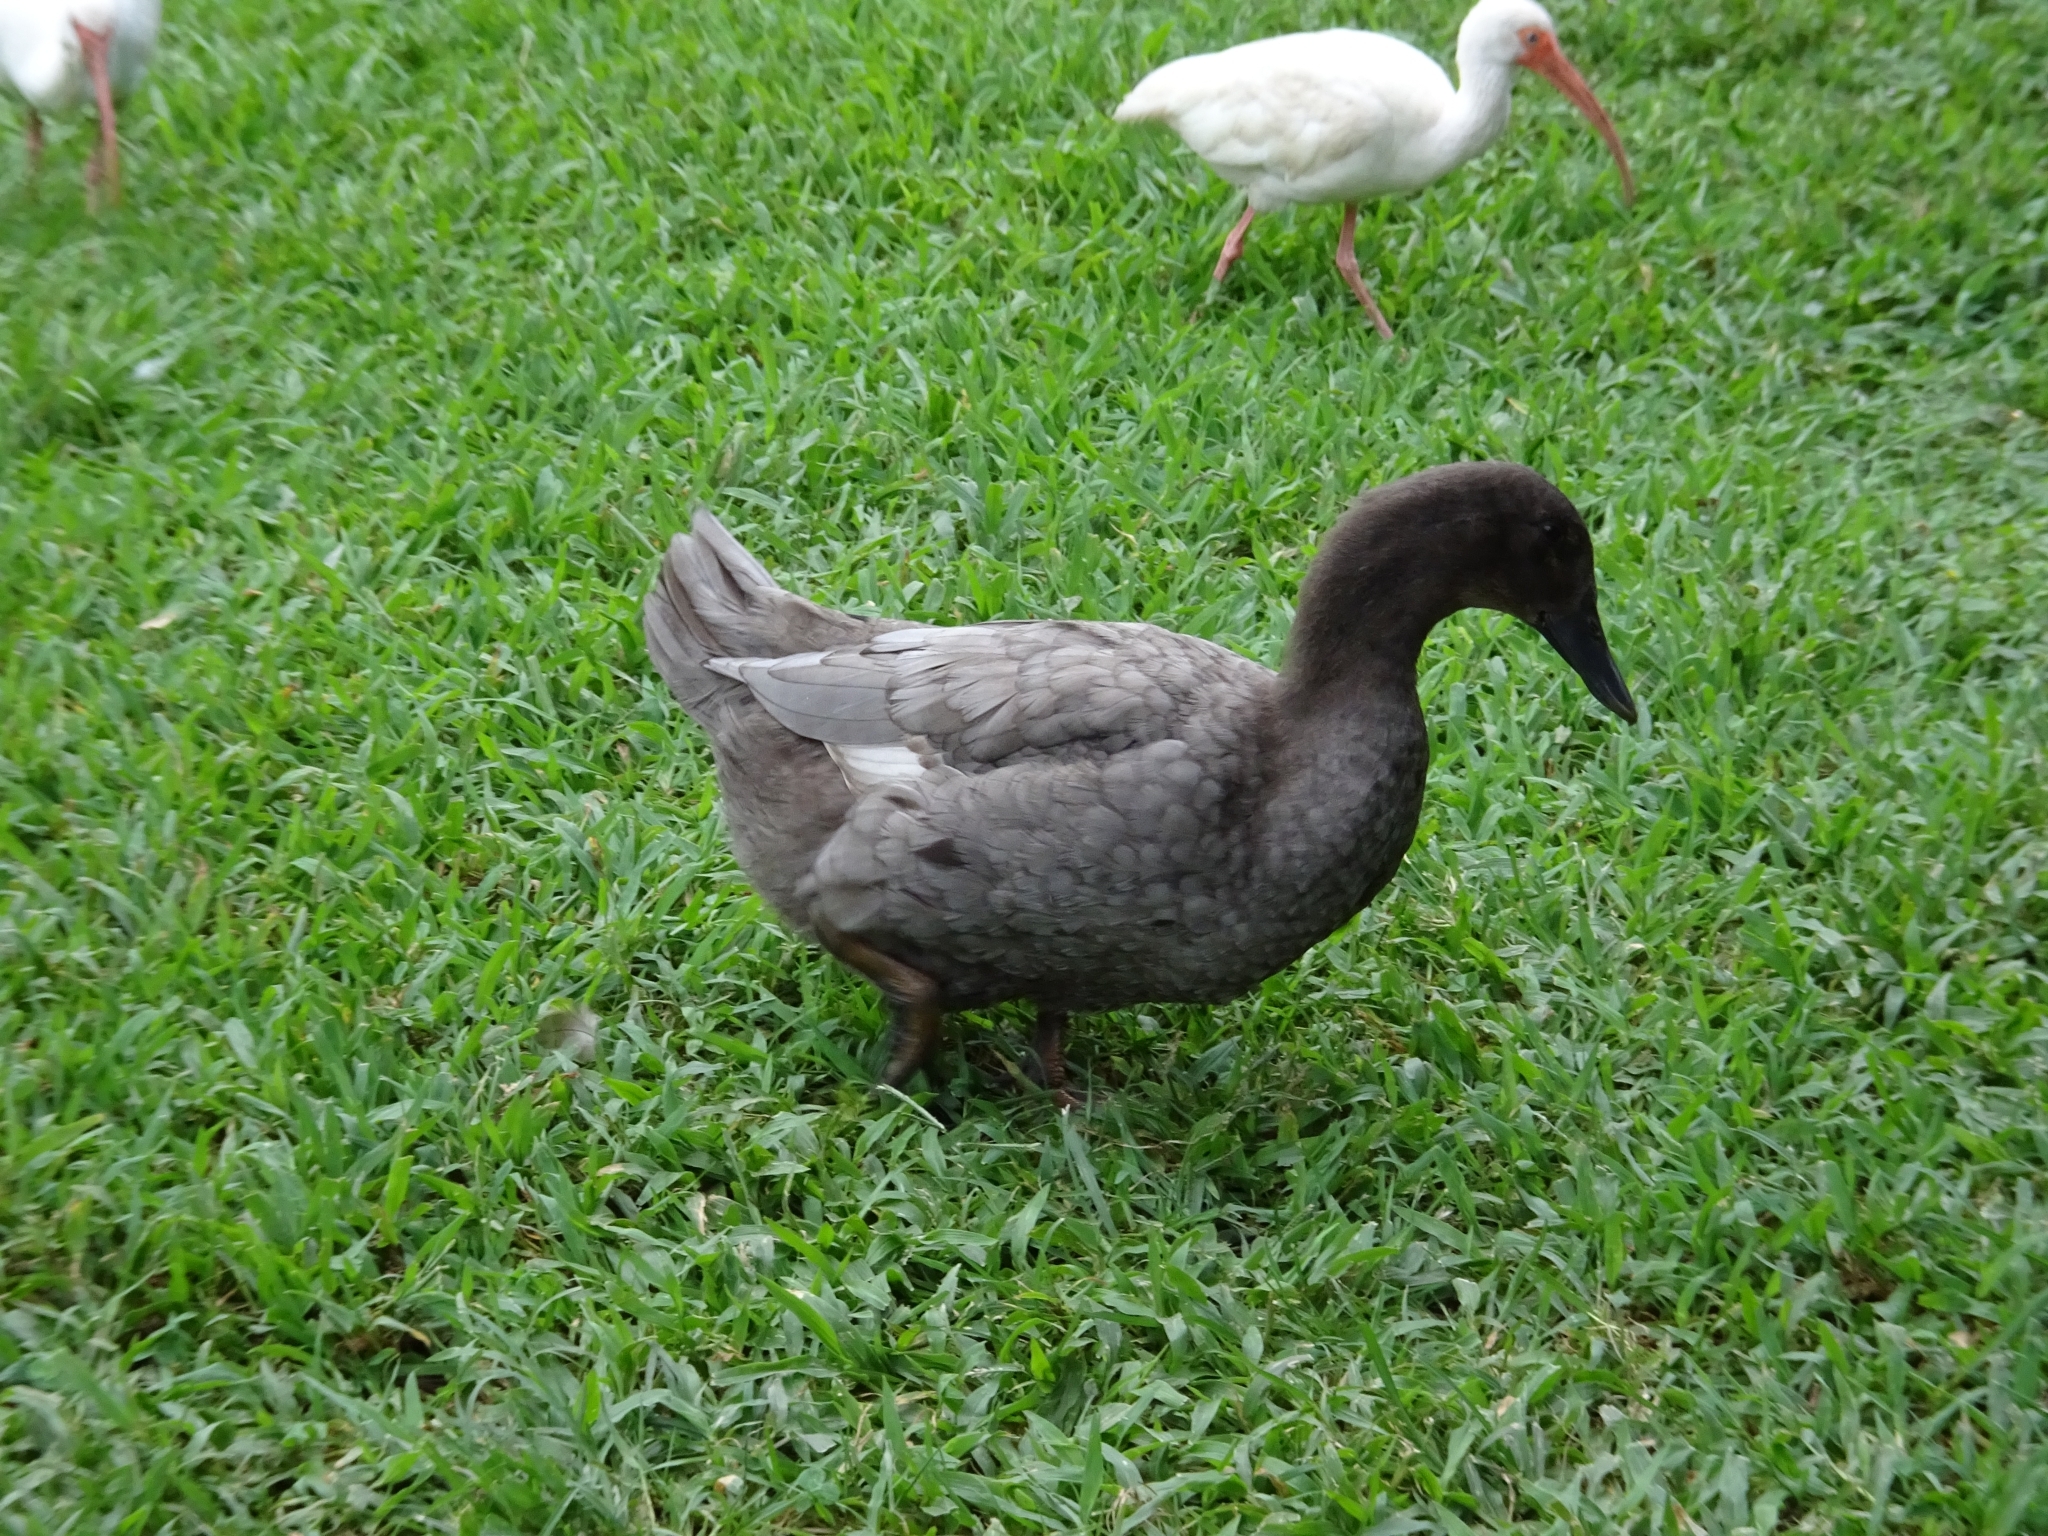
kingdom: Animalia
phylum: Chordata
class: Aves
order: Anseriformes
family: Anatidae
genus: Anas
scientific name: Anas platyrhynchos
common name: Mallard
